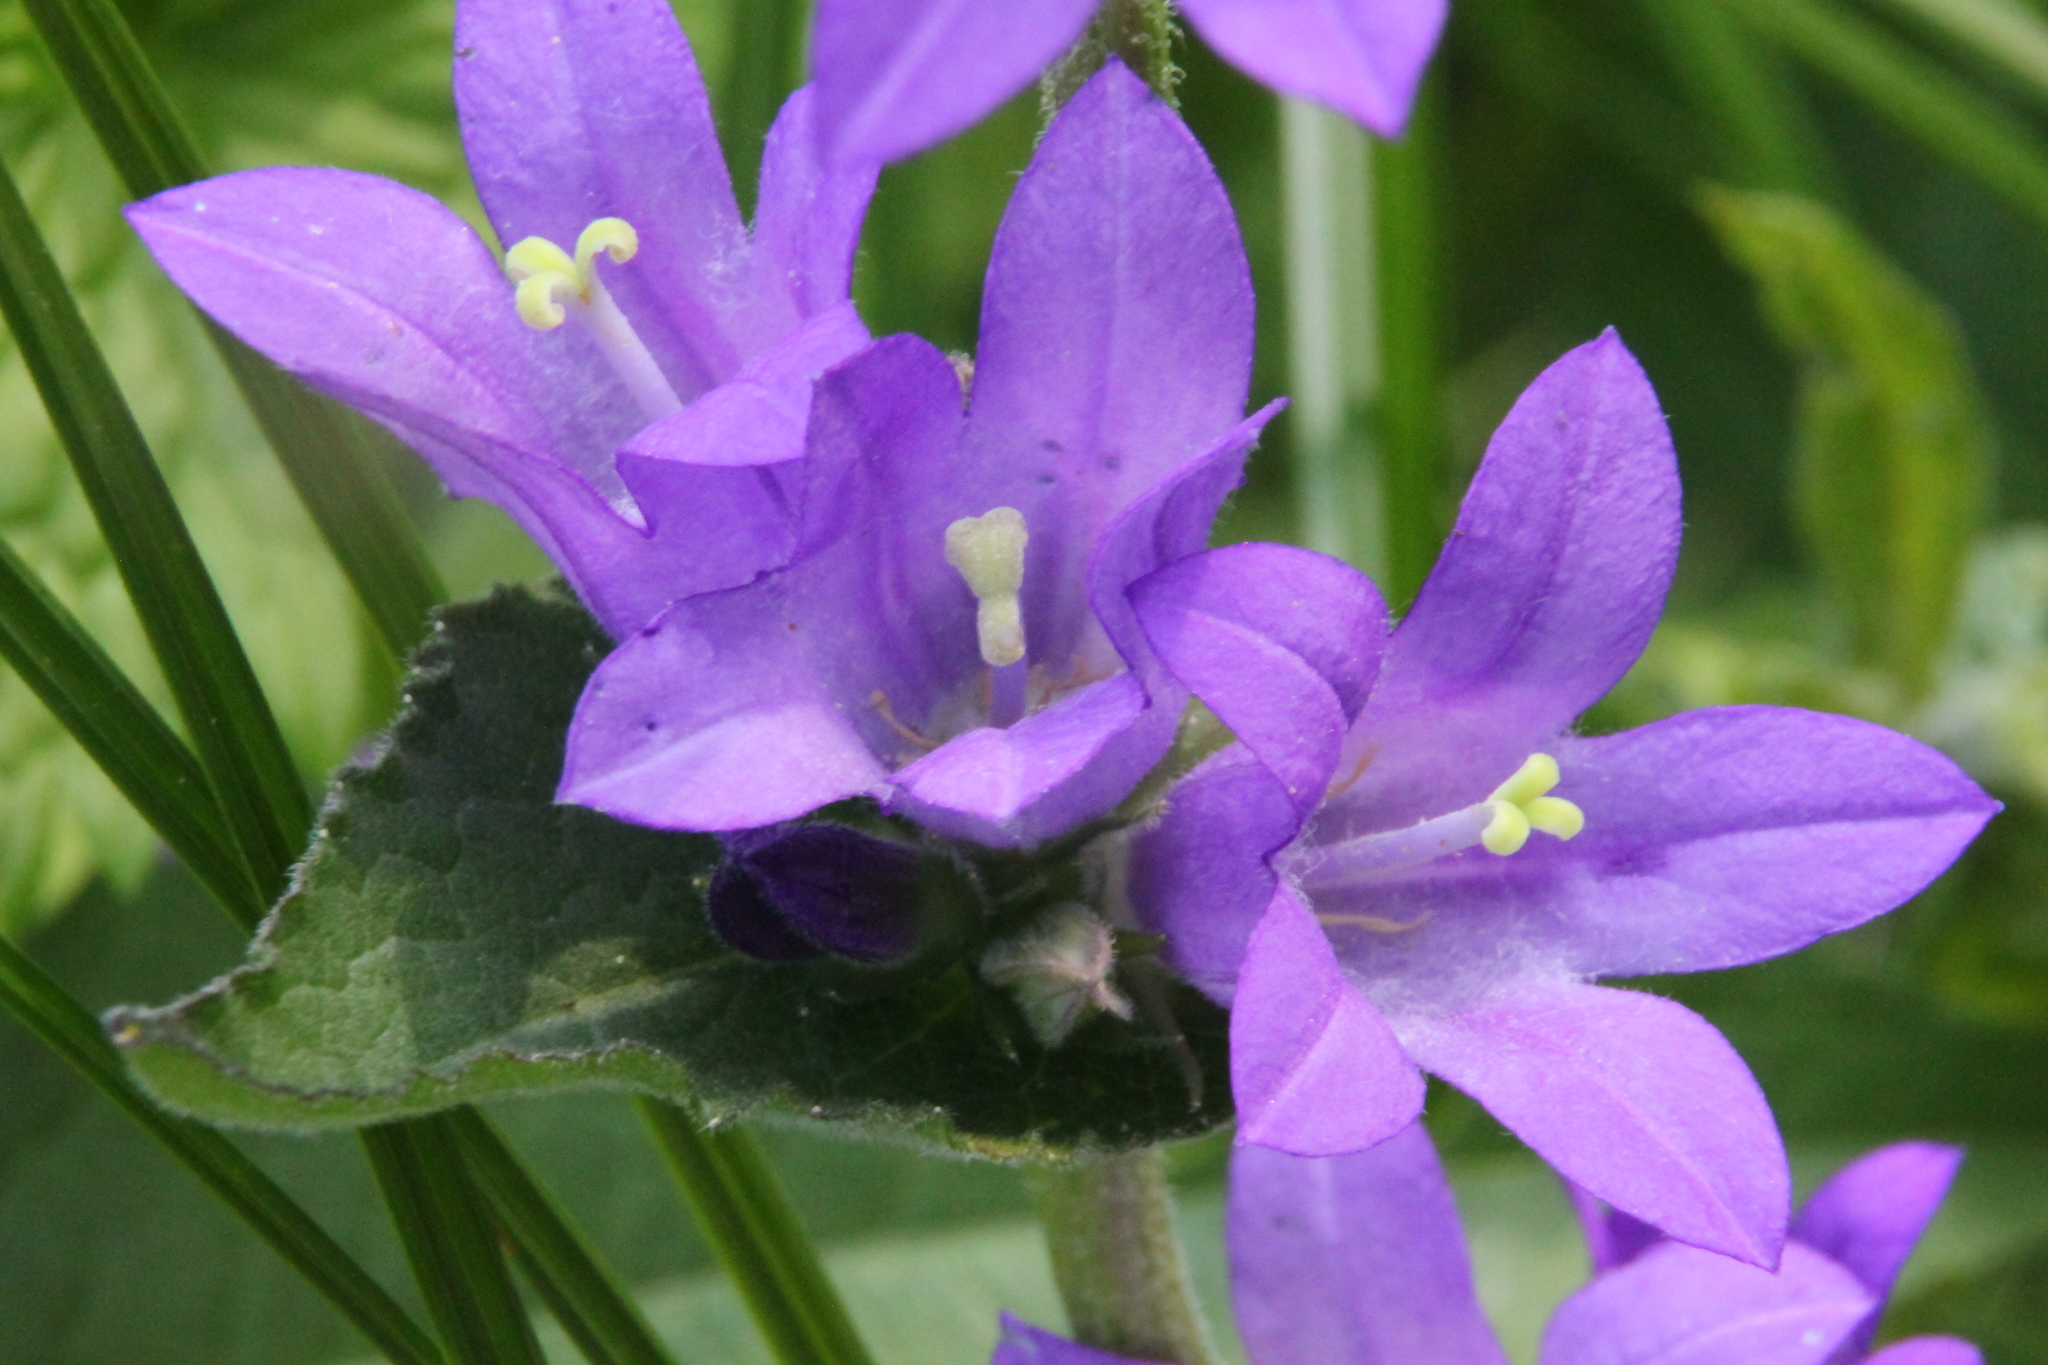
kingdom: Plantae
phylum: Tracheophyta
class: Magnoliopsida
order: Asterales
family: Campanulaceae
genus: Campanula
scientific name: Campanula glomerata
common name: Clustered bellflower
